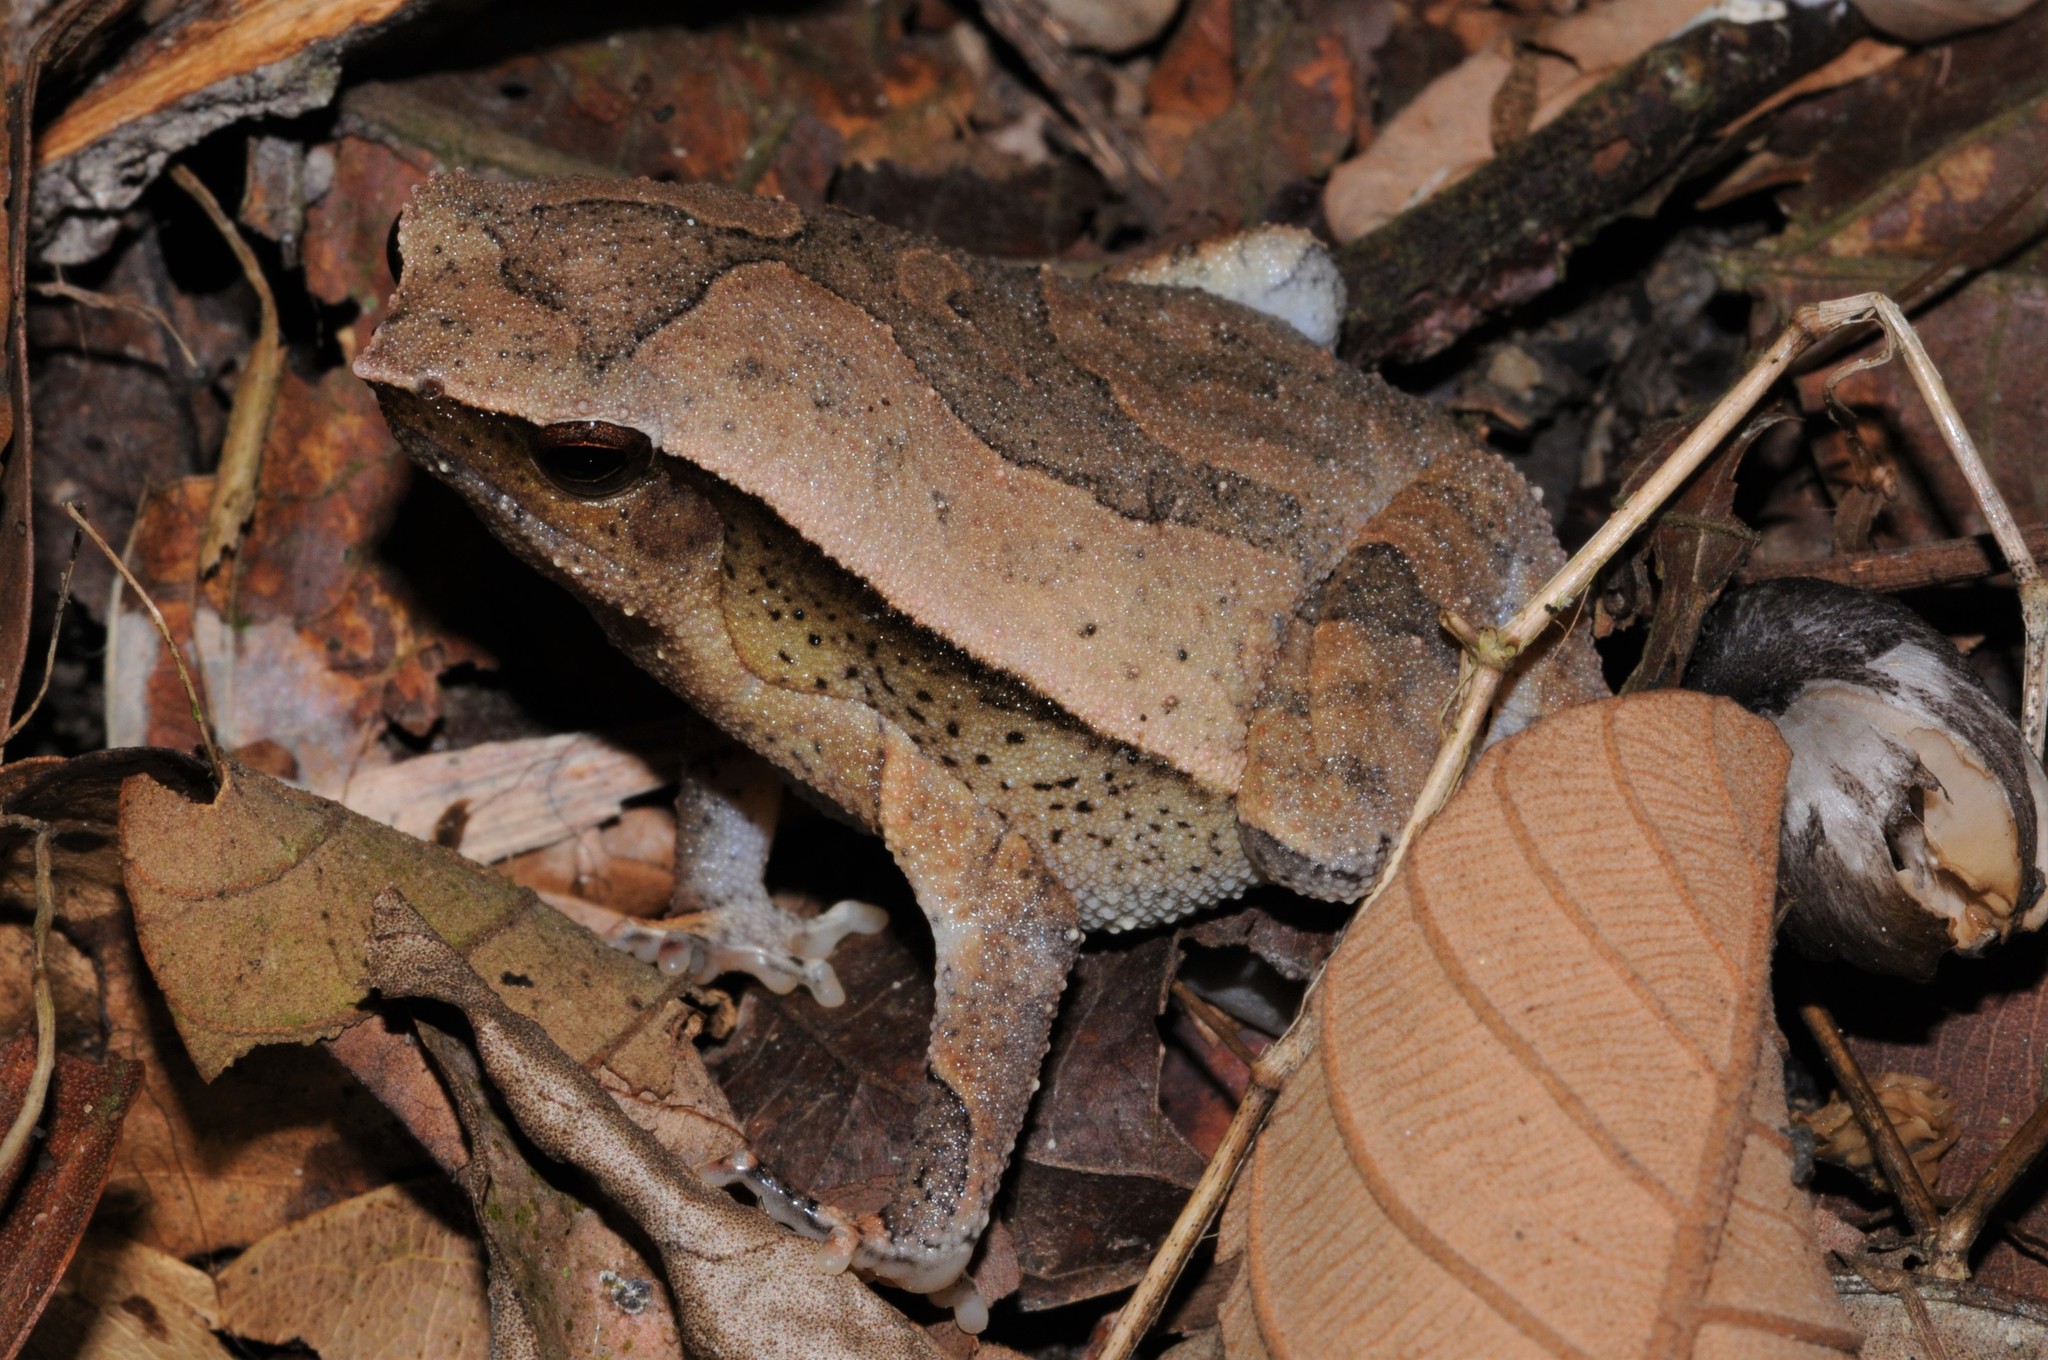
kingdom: Animalia
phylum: Chordata
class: Amphibia
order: Anura
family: Microhylidae
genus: Kalophrynus
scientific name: Kalophrynus kiewi
